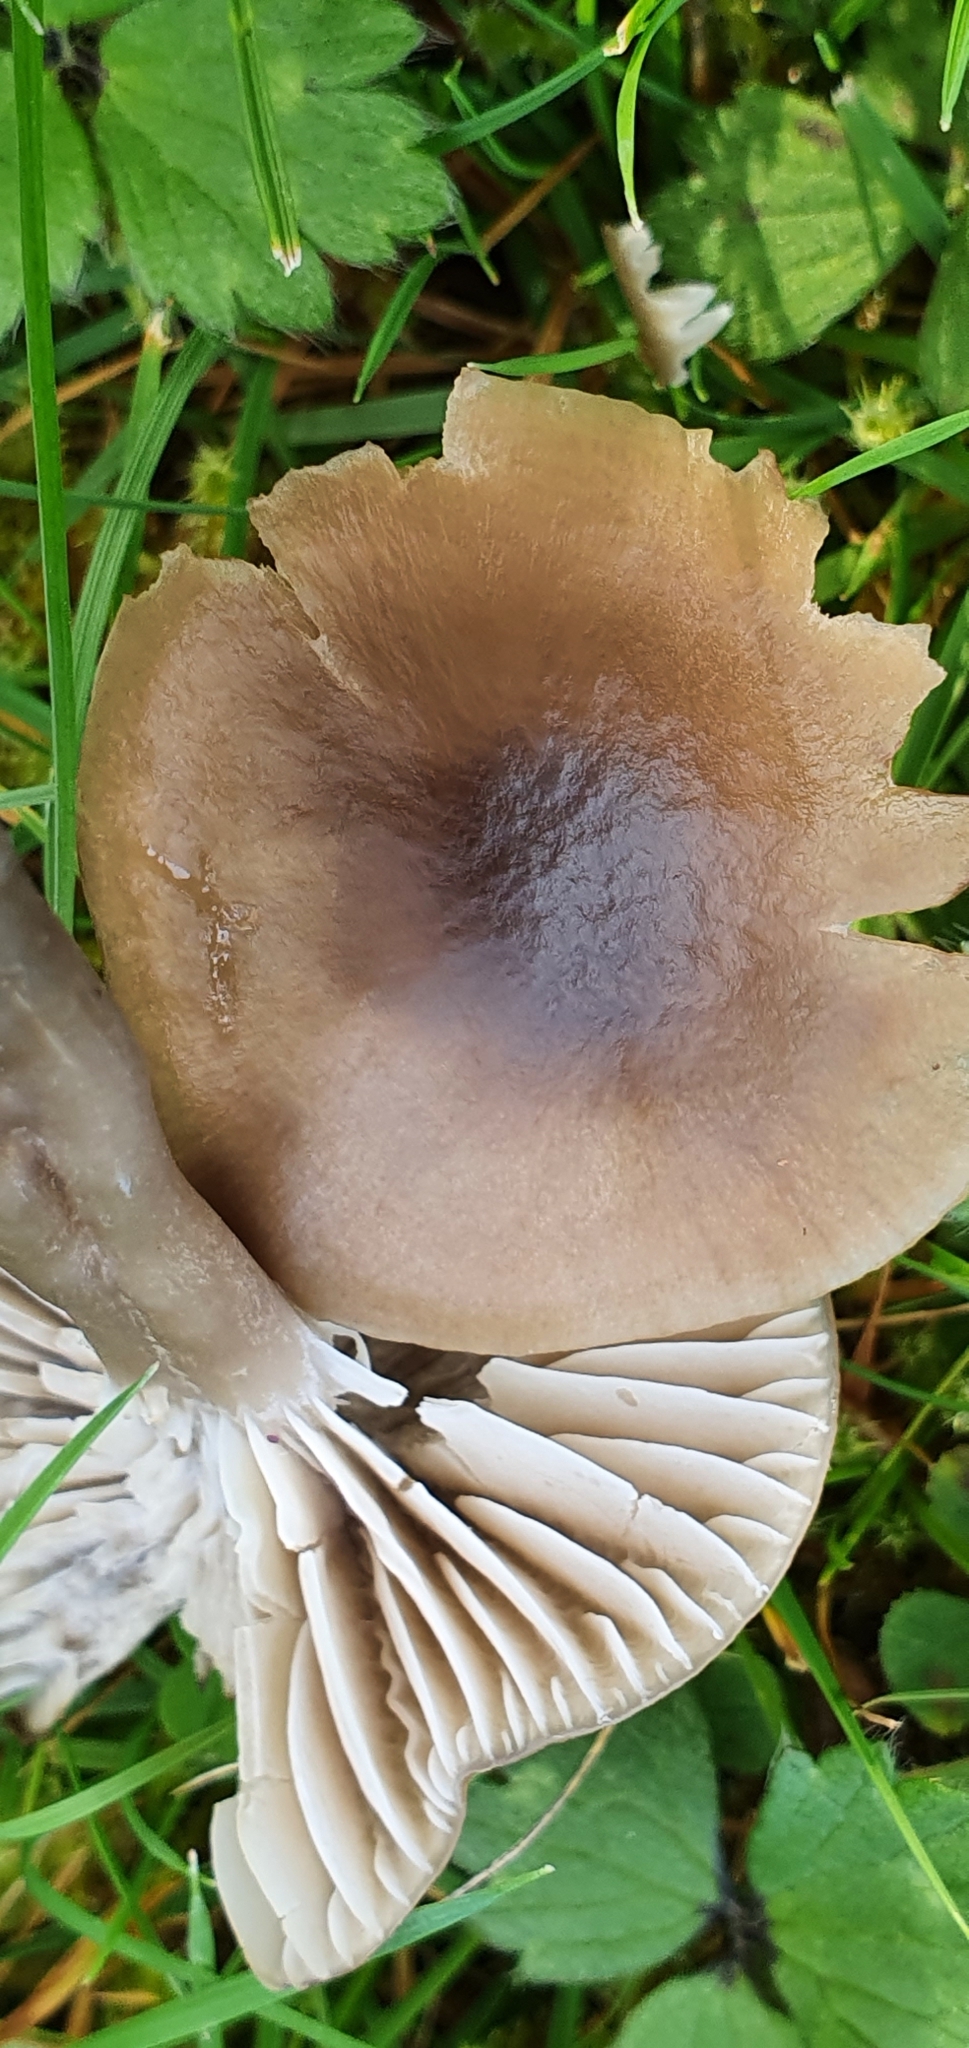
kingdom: Fungi
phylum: Basidiomycota
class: Agaricomycetes
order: Agaricales
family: Hygrophoraceae
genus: Gliophorus
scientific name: Gliophorus irrigatus
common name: Slimy waxcap
